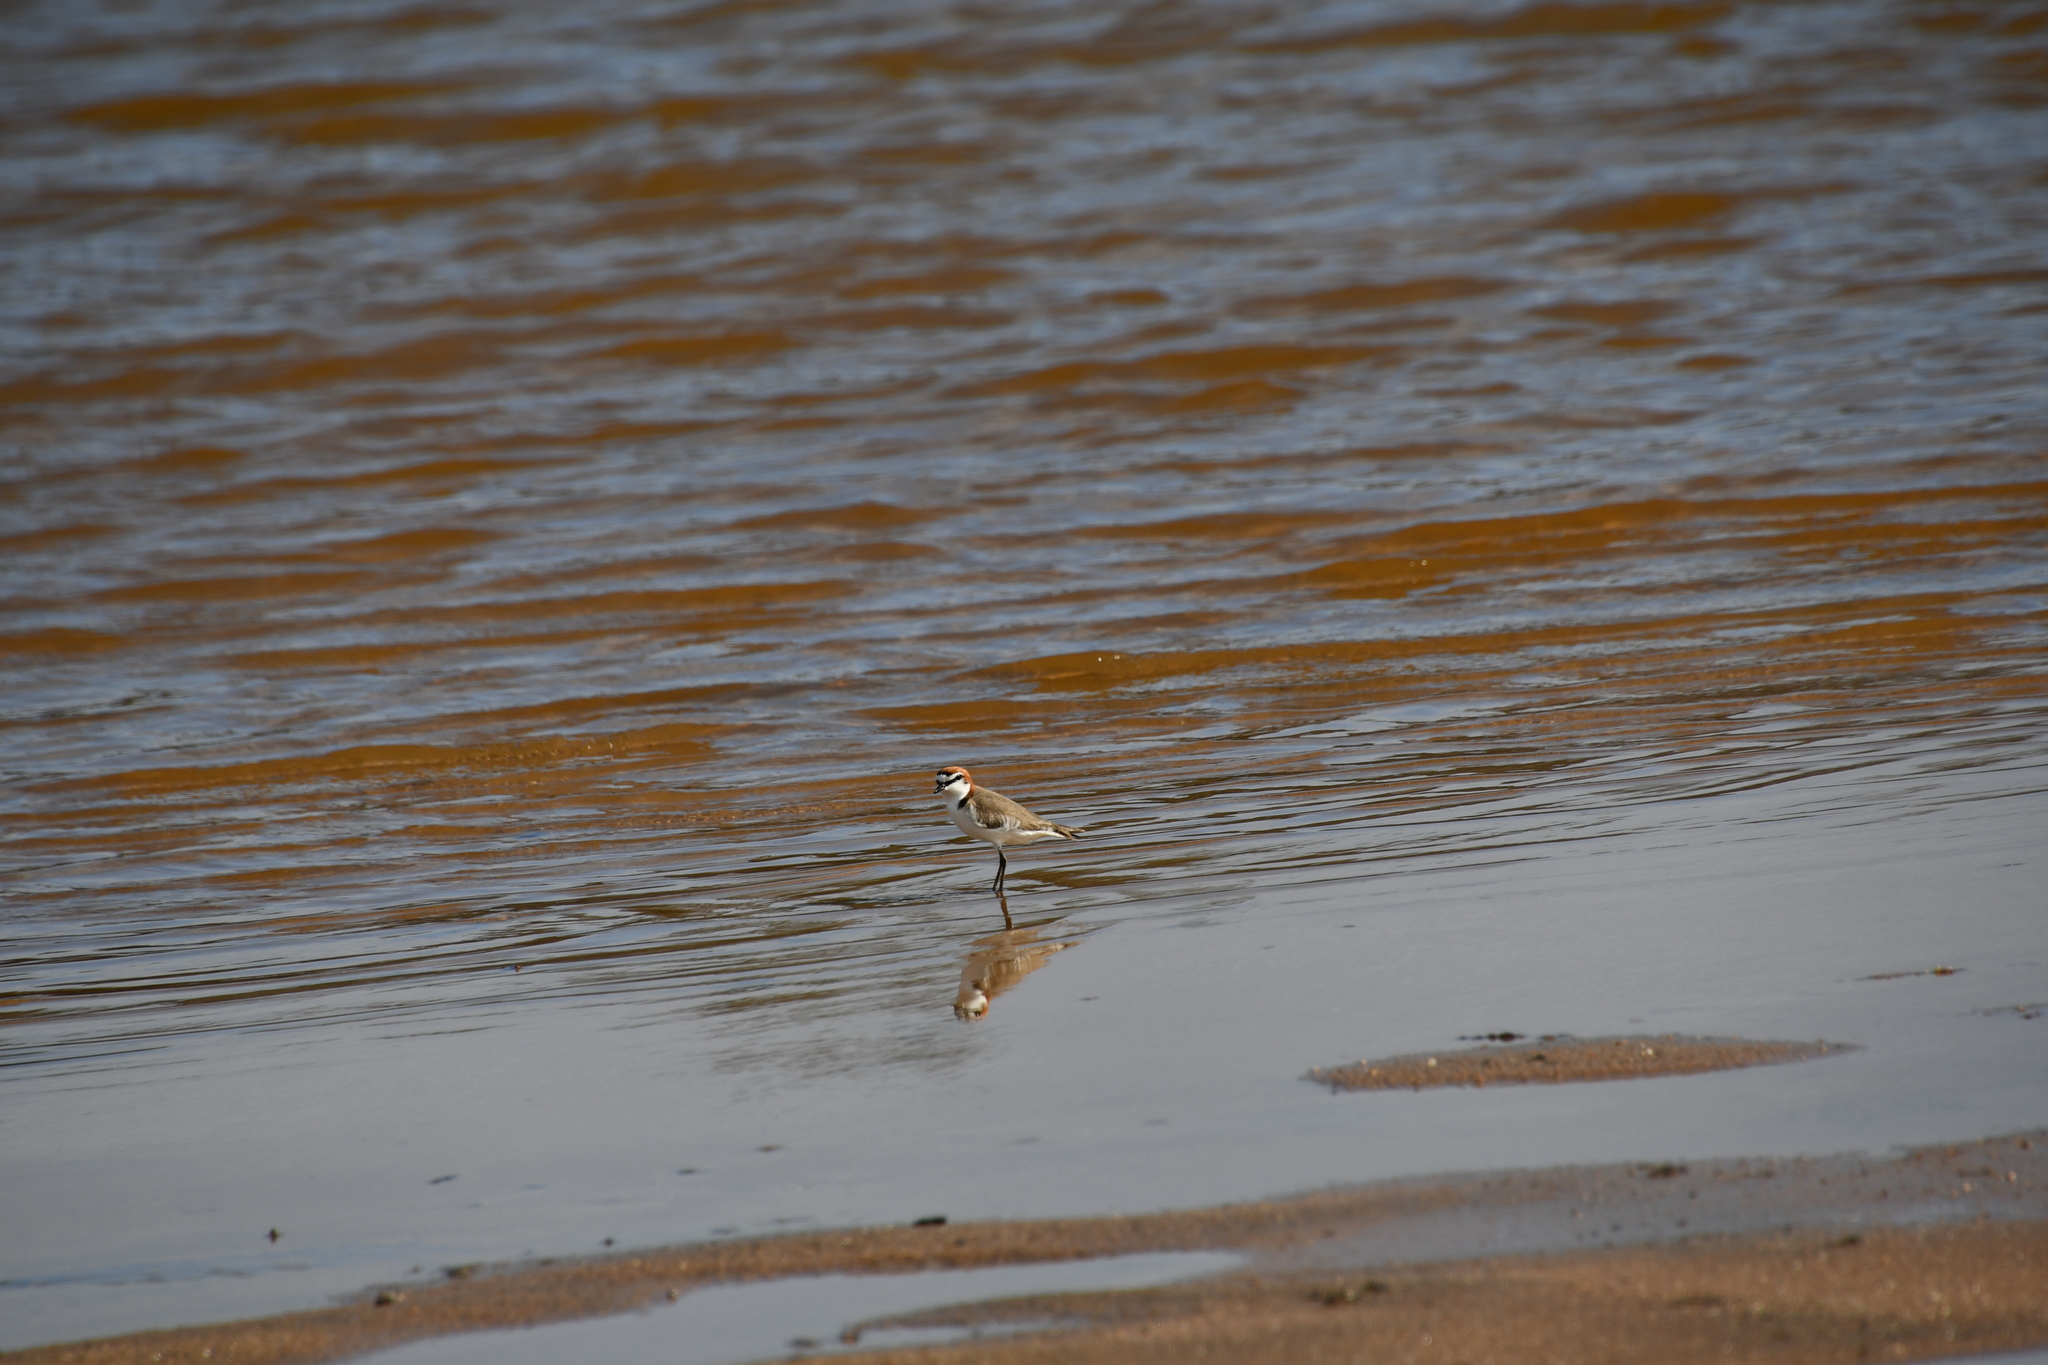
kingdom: Animalia
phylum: Chordata
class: Aves
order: Charadriiformes
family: Charadriidae
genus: Anarhynchus
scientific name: Anarhynchus
